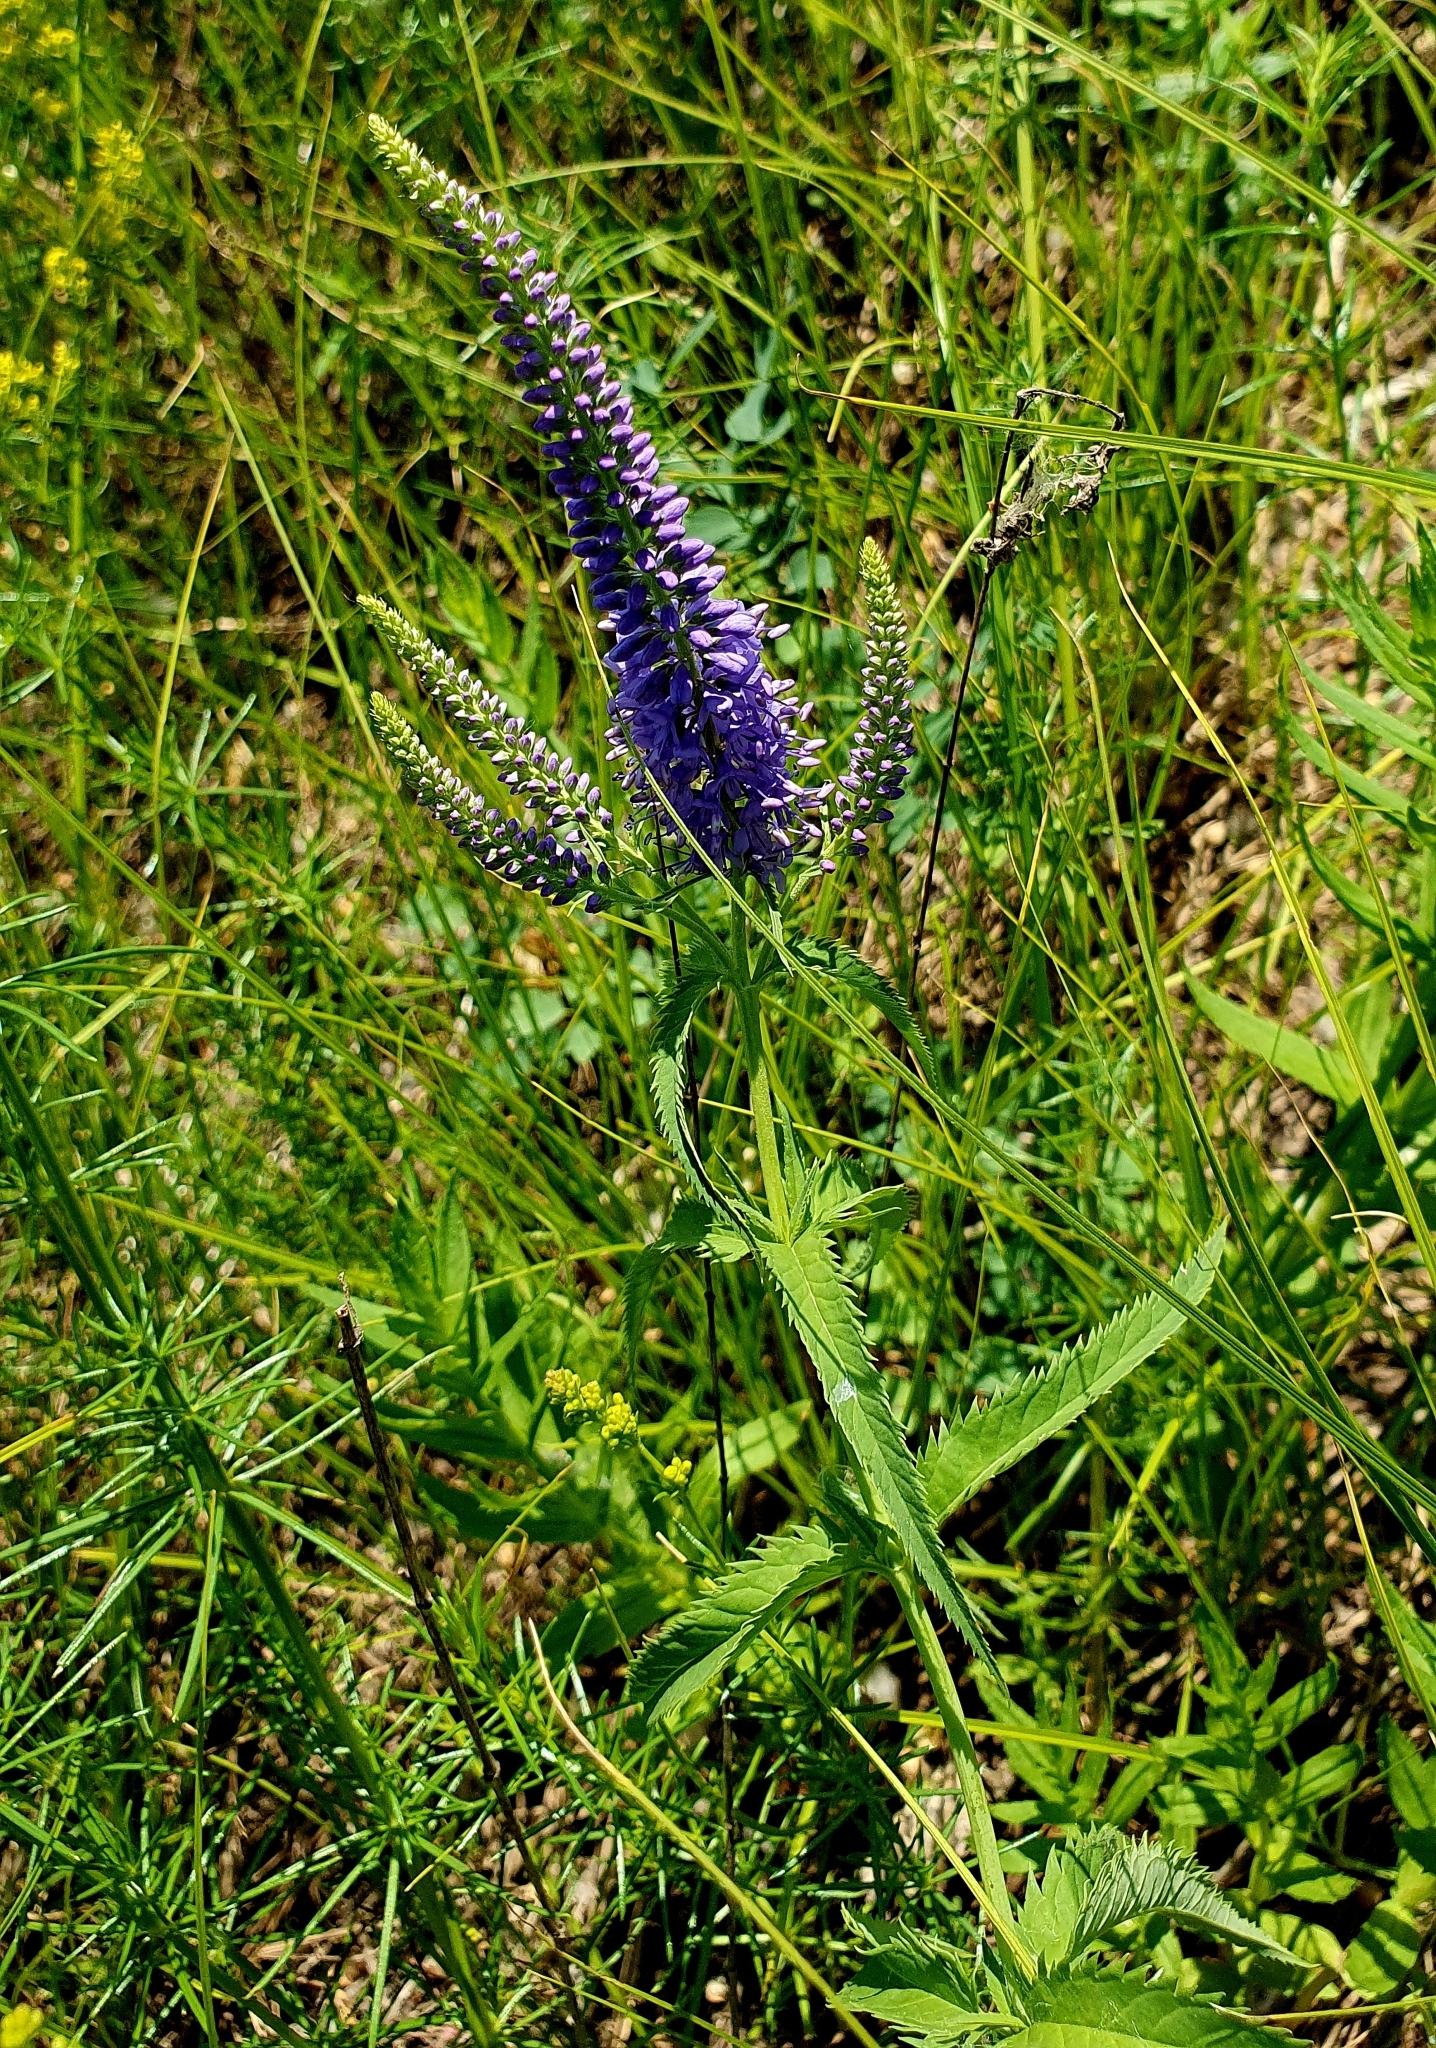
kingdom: Plantae
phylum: Tracheophyta
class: Magnoliopsida
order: Lamiales
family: Plantaginaceae
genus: Veronica
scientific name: Veronica longifolia
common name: Garden speedwell
